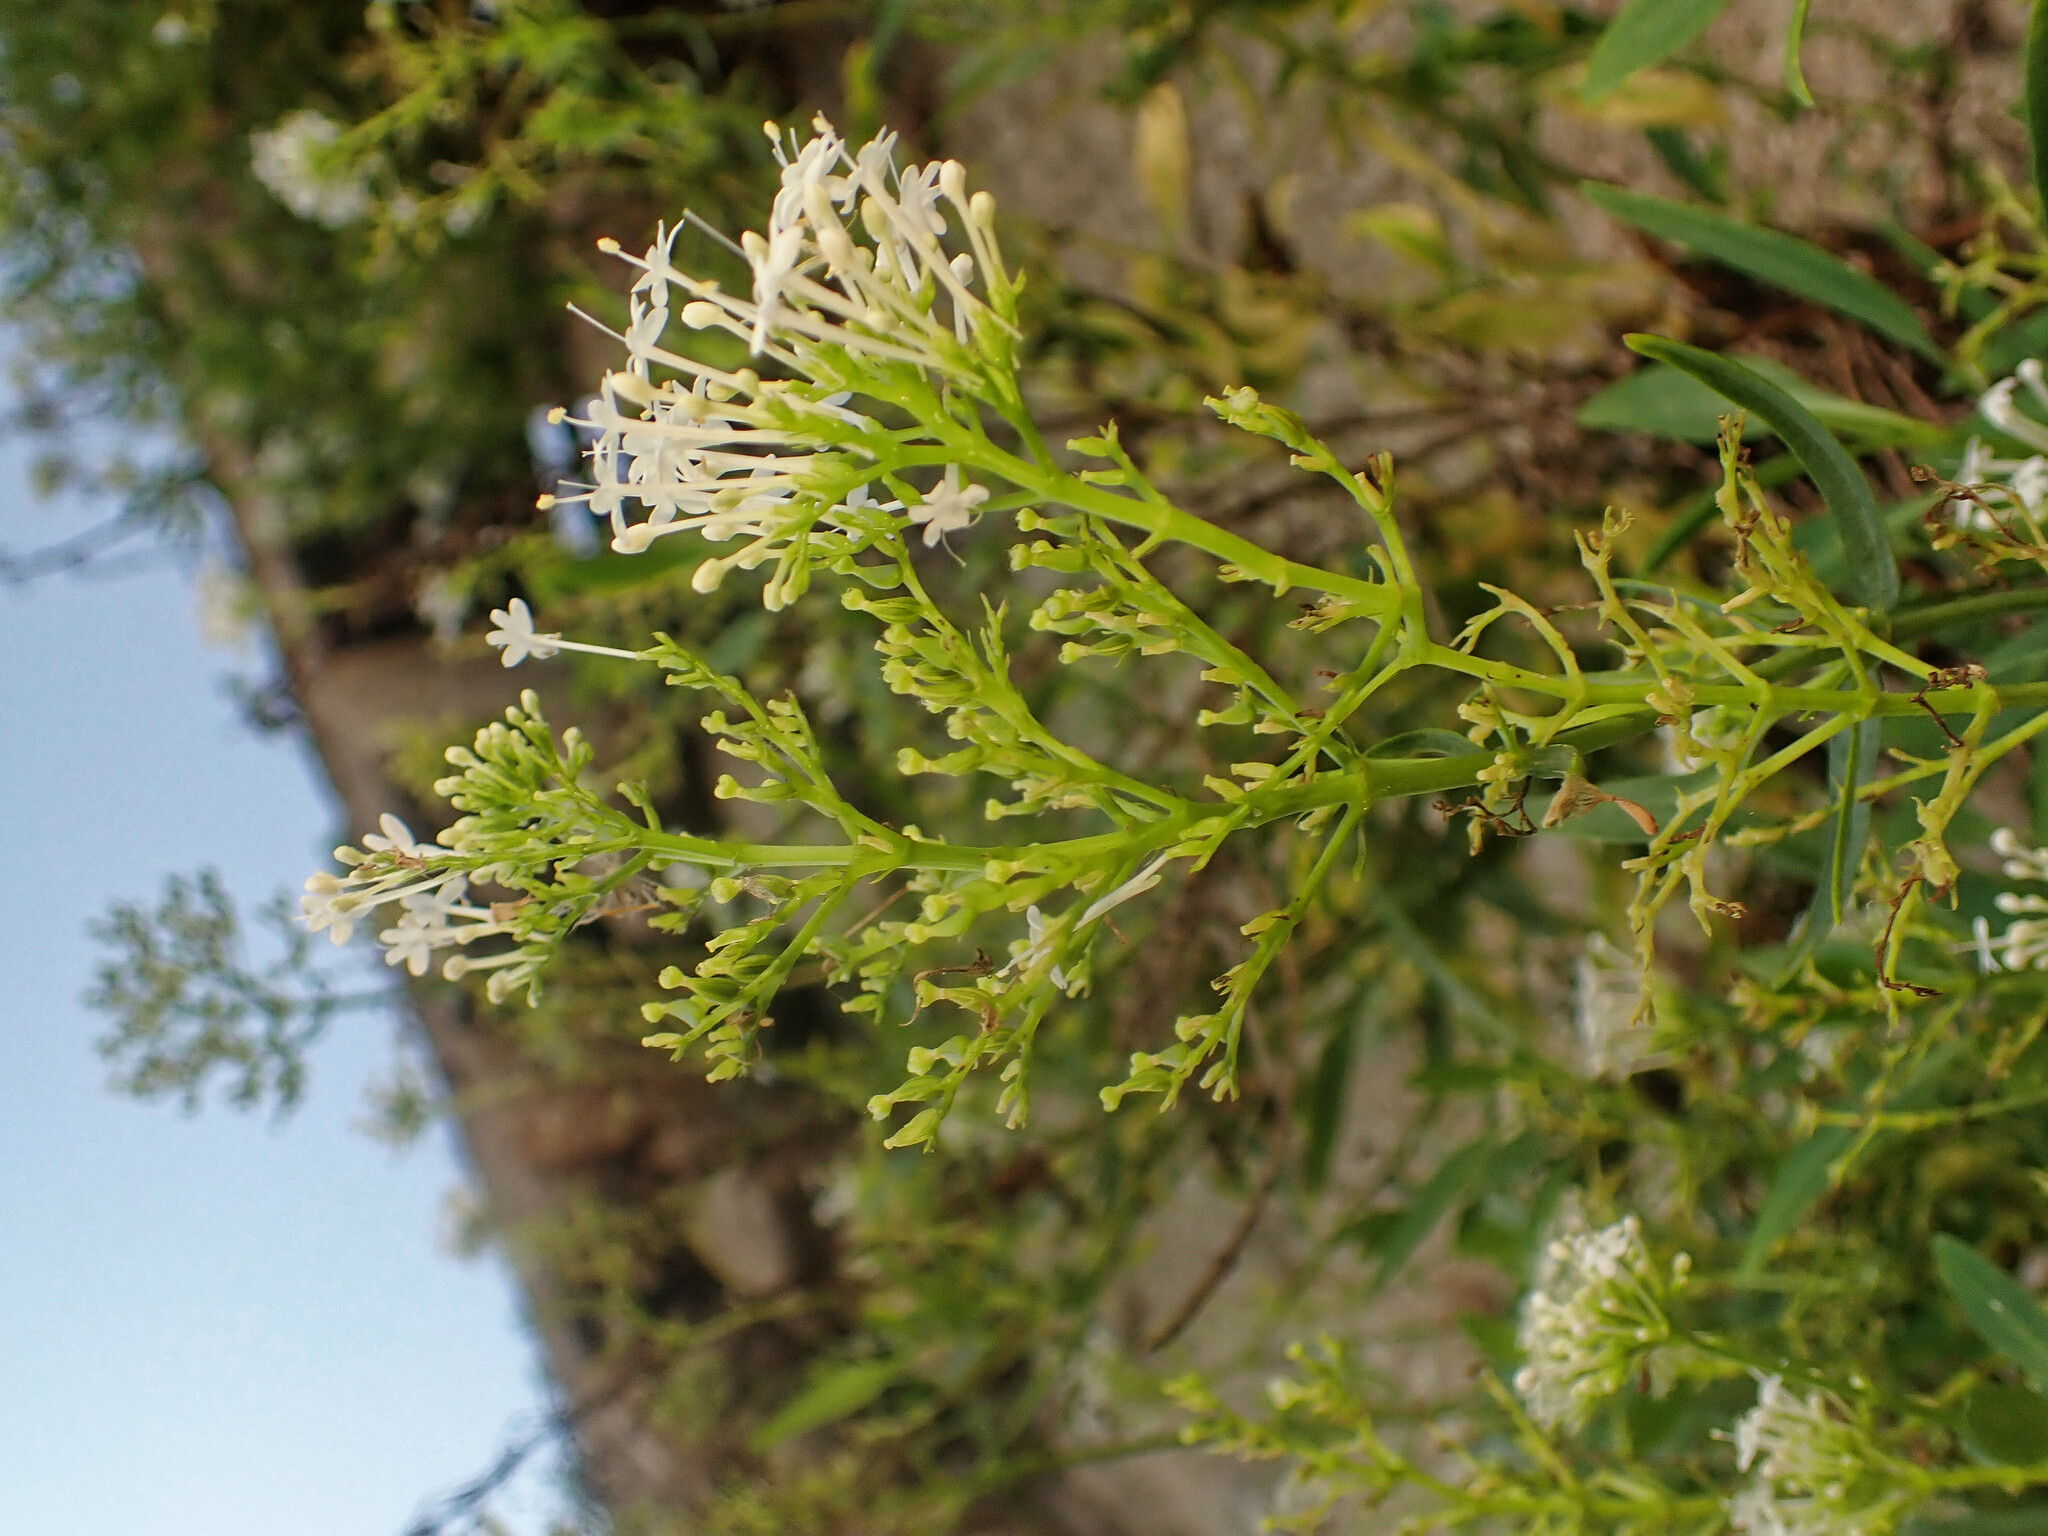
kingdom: Plantae
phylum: Tracheophyta
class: Magnoliopsida
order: Dipsacales
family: Caprifoliaceae
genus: Centranthus
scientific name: Centranthus ruber
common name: Red valerian
